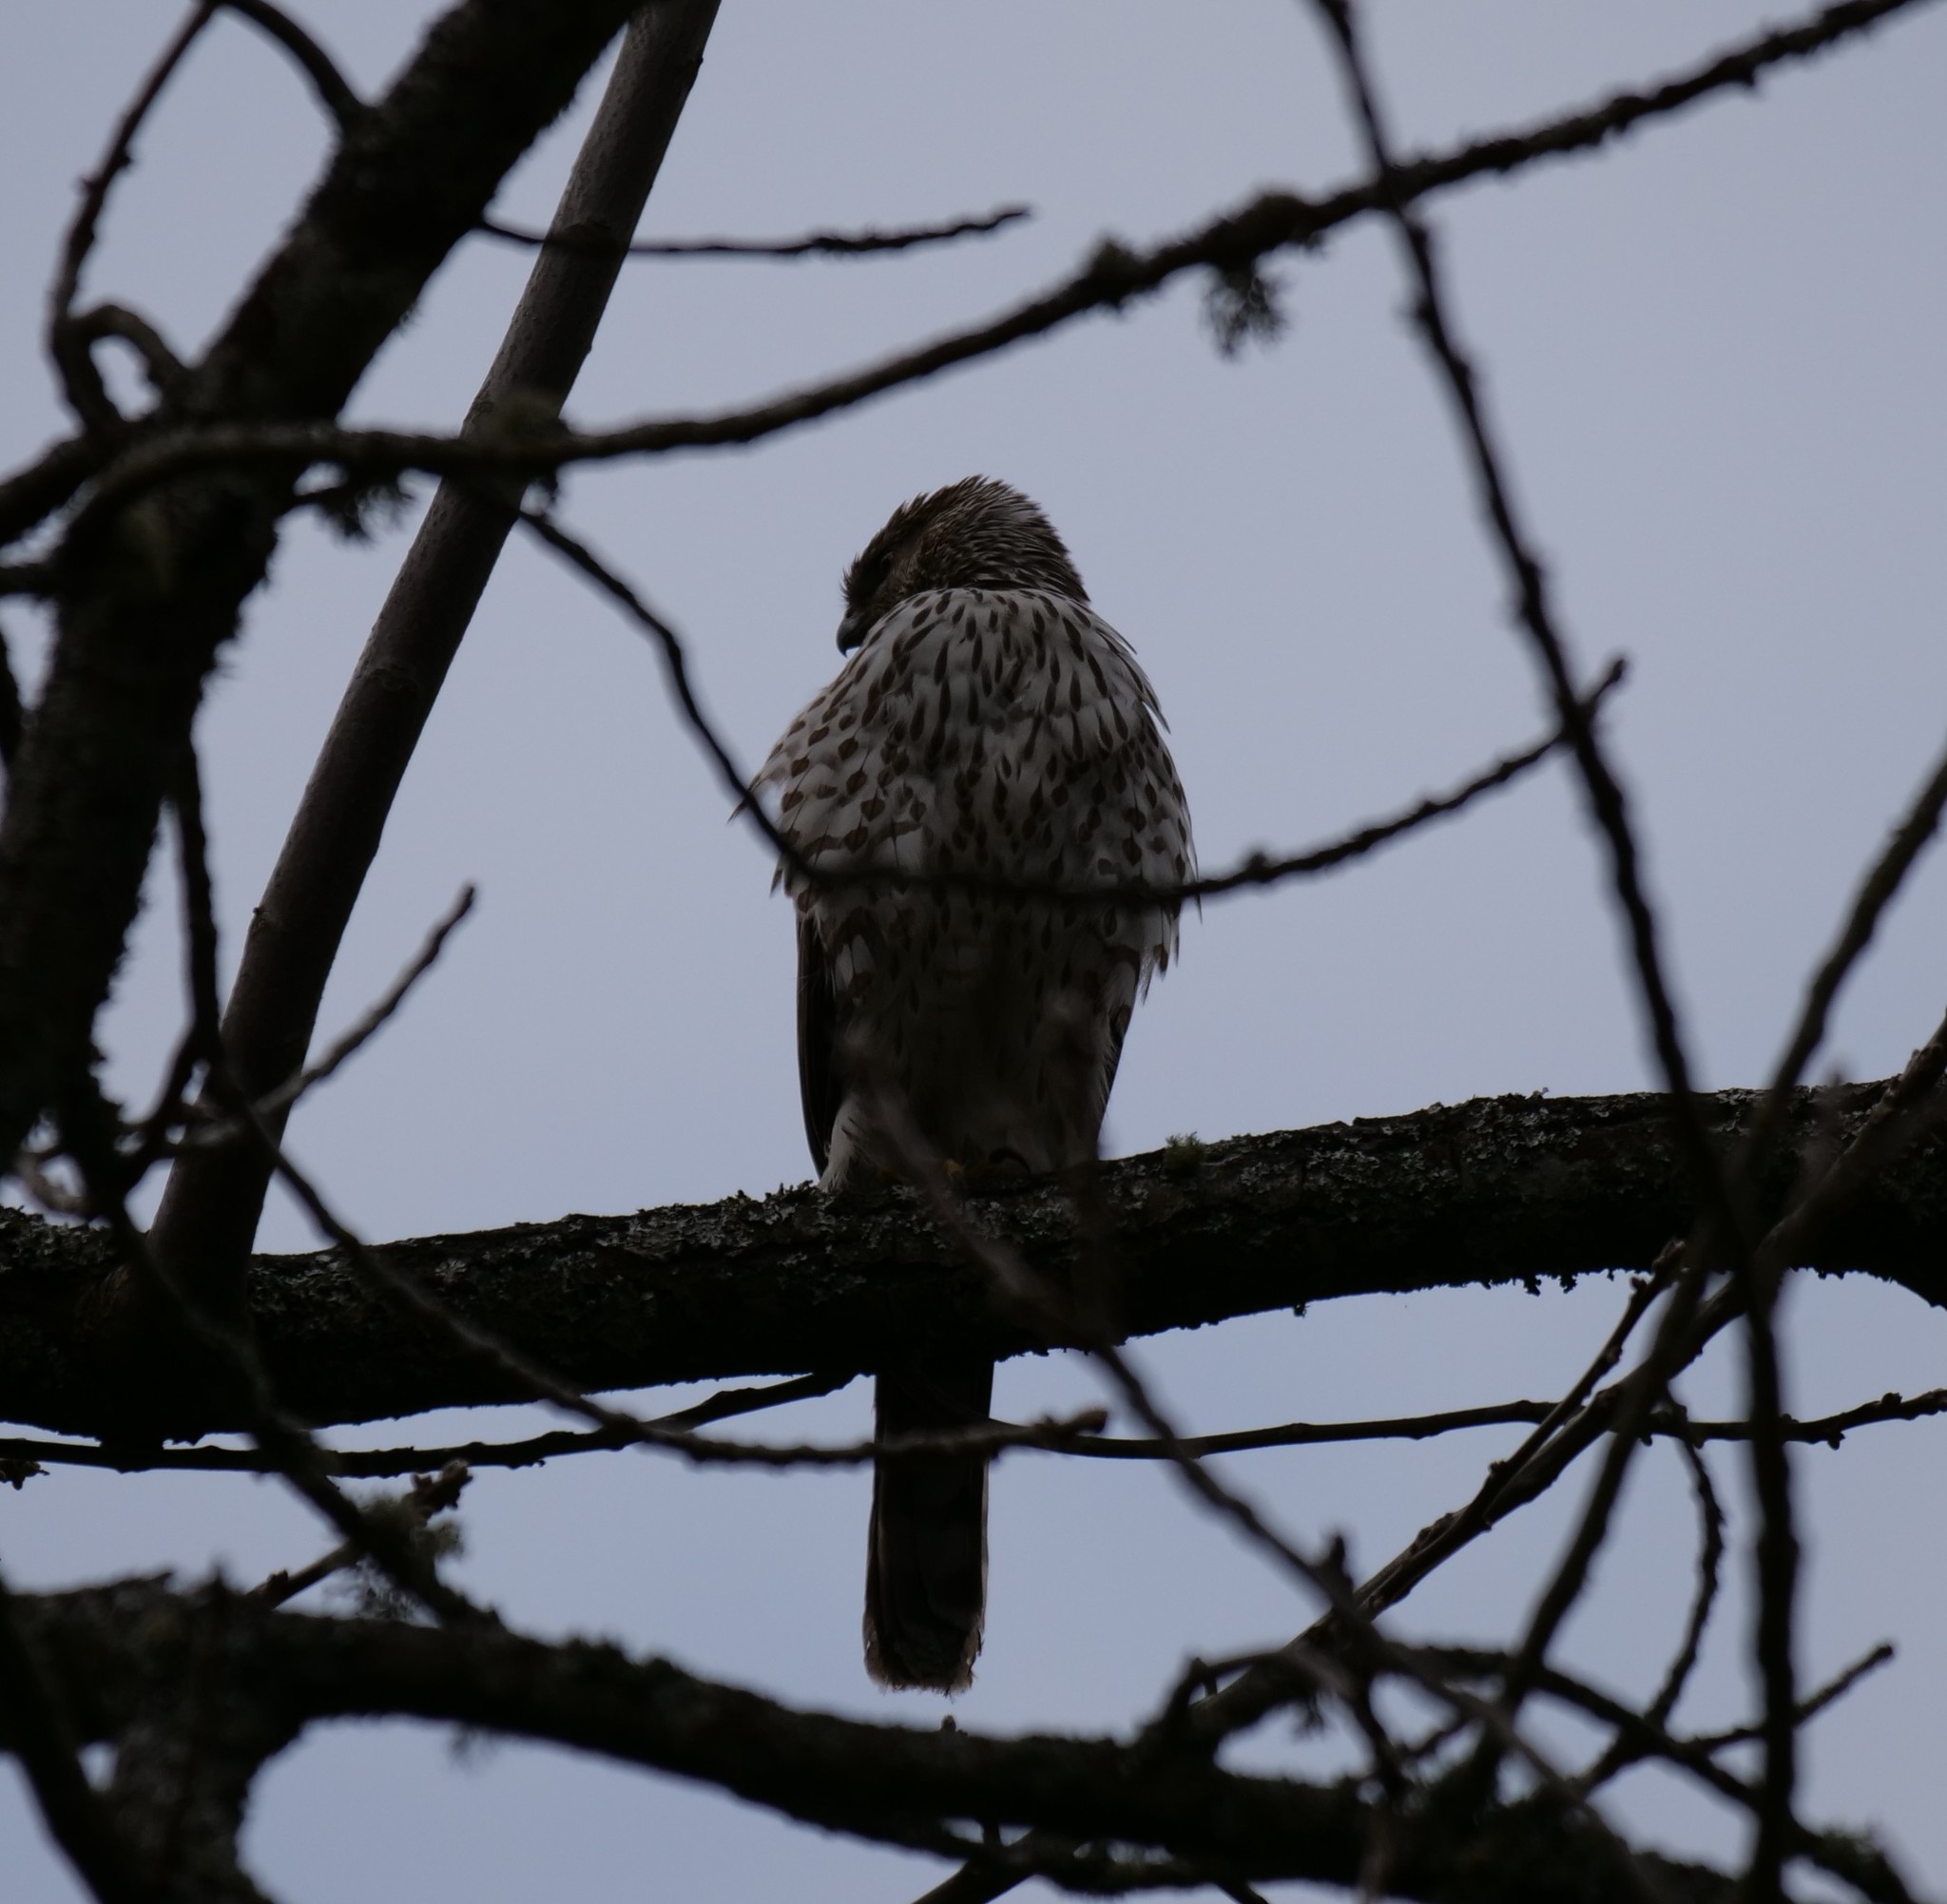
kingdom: Animalia
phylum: Chordata
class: Aves
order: Accipitriformes
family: Accipitridae
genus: Accipiter
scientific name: Accipiter cooperii
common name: Cooper's hawk
